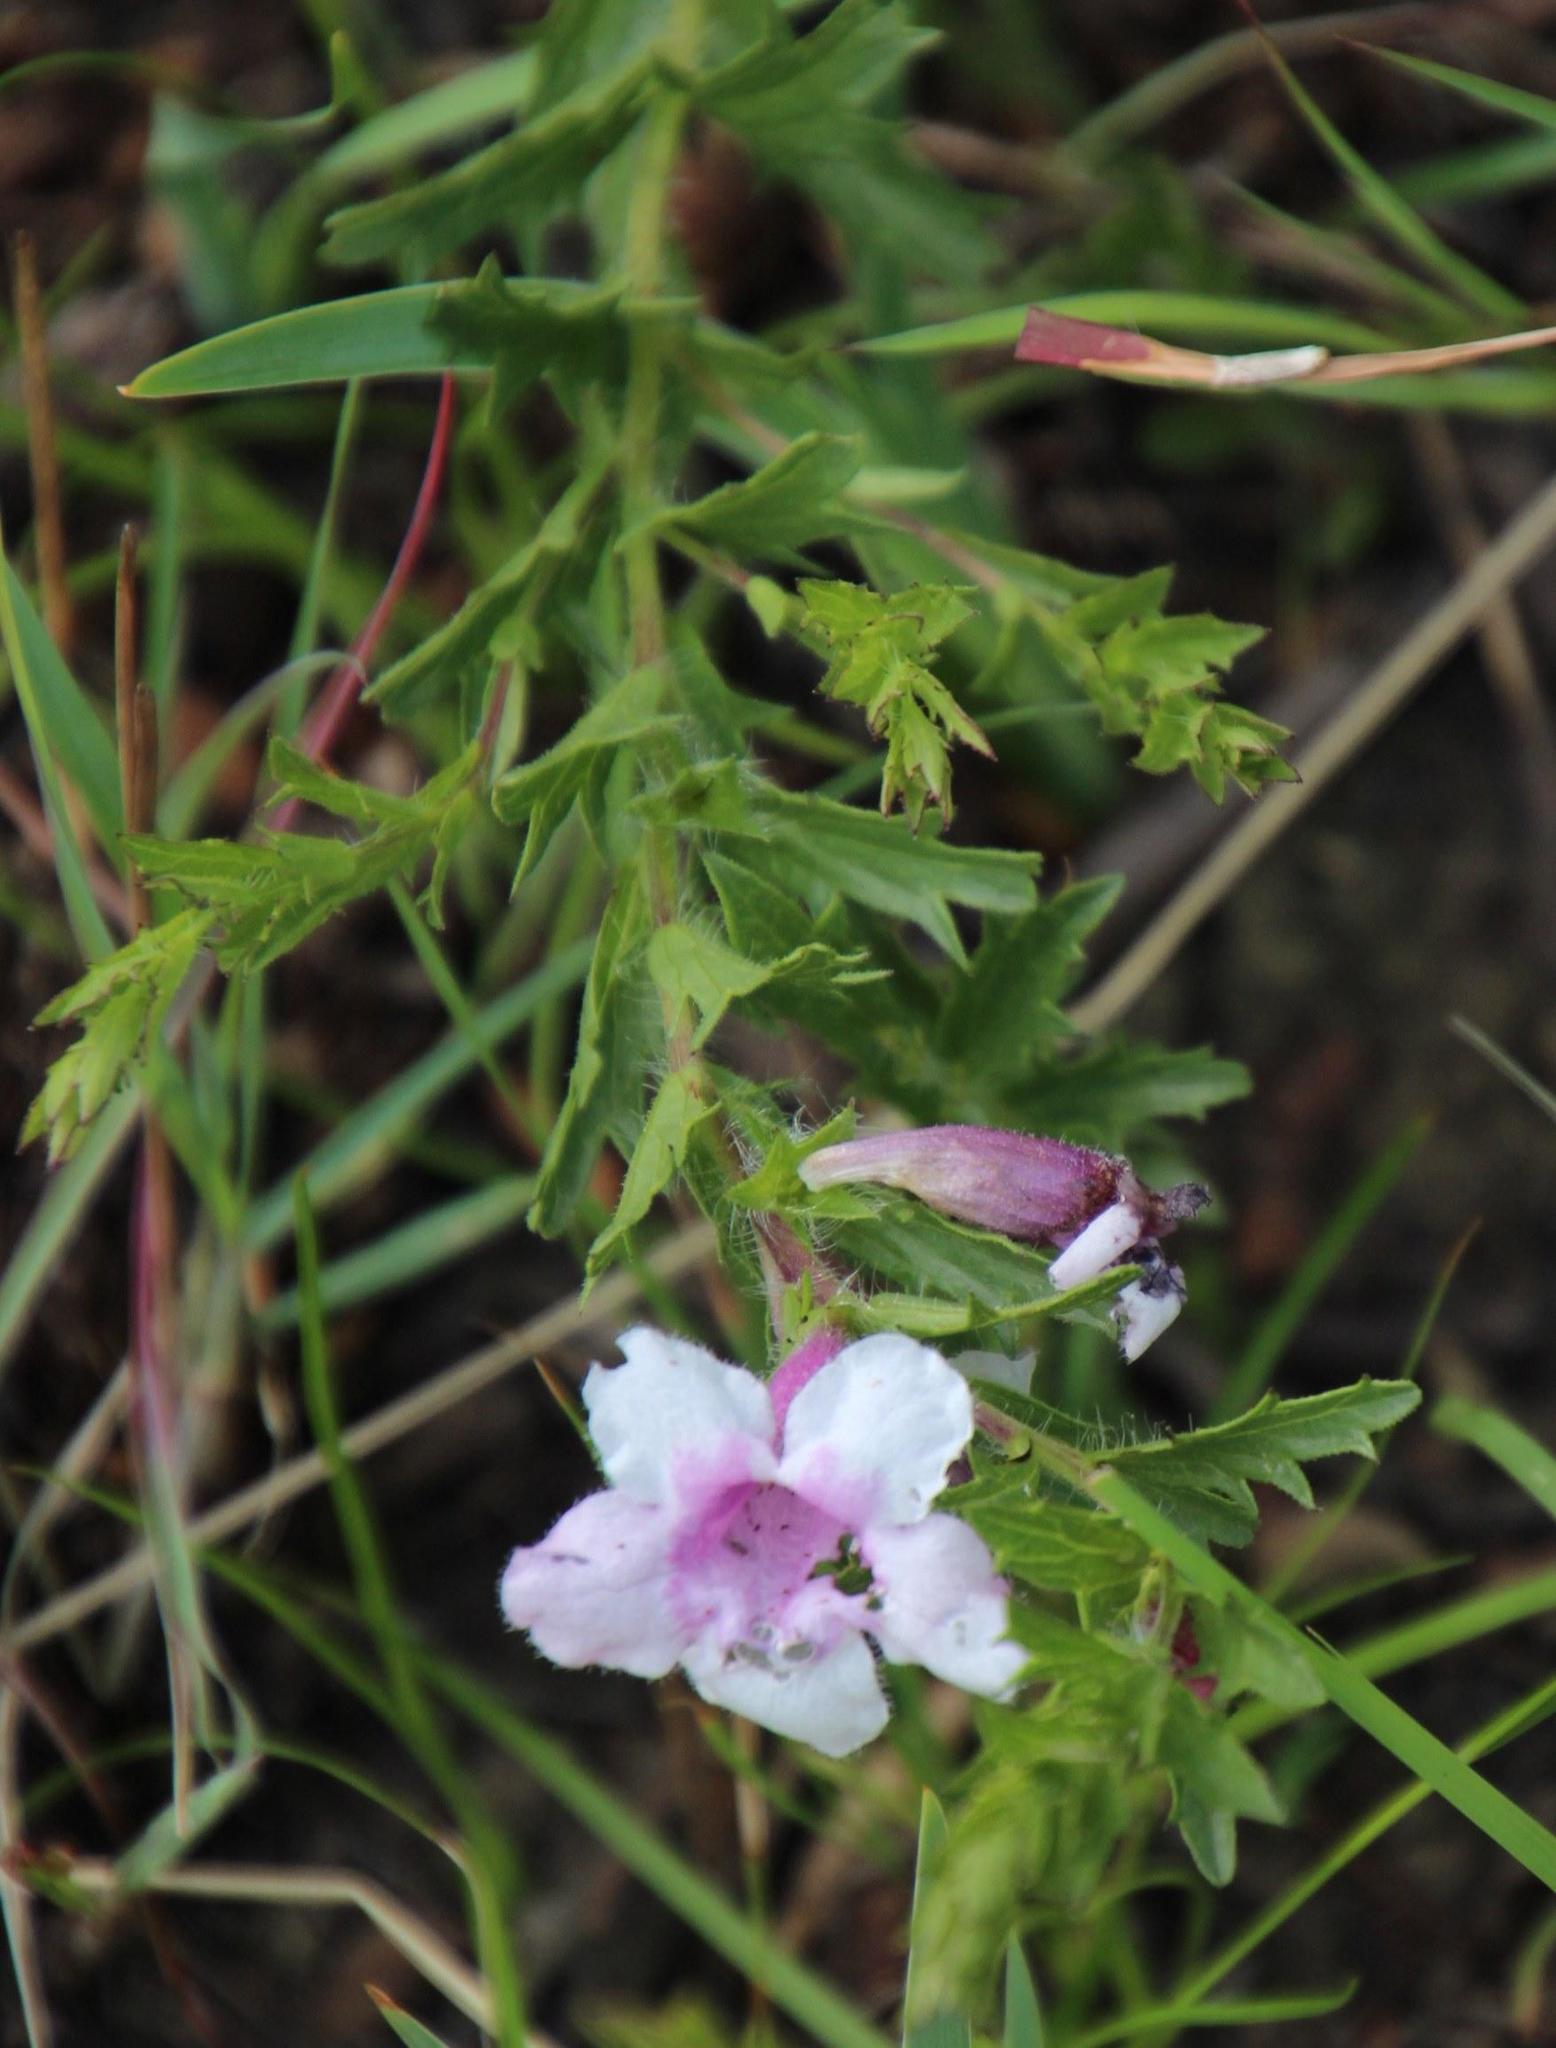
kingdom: Plantae
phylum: Tracheophyta
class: Magnoliopsida
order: Lamiales
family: Orobanchaceae
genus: Graderia
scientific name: Graderia scabra
